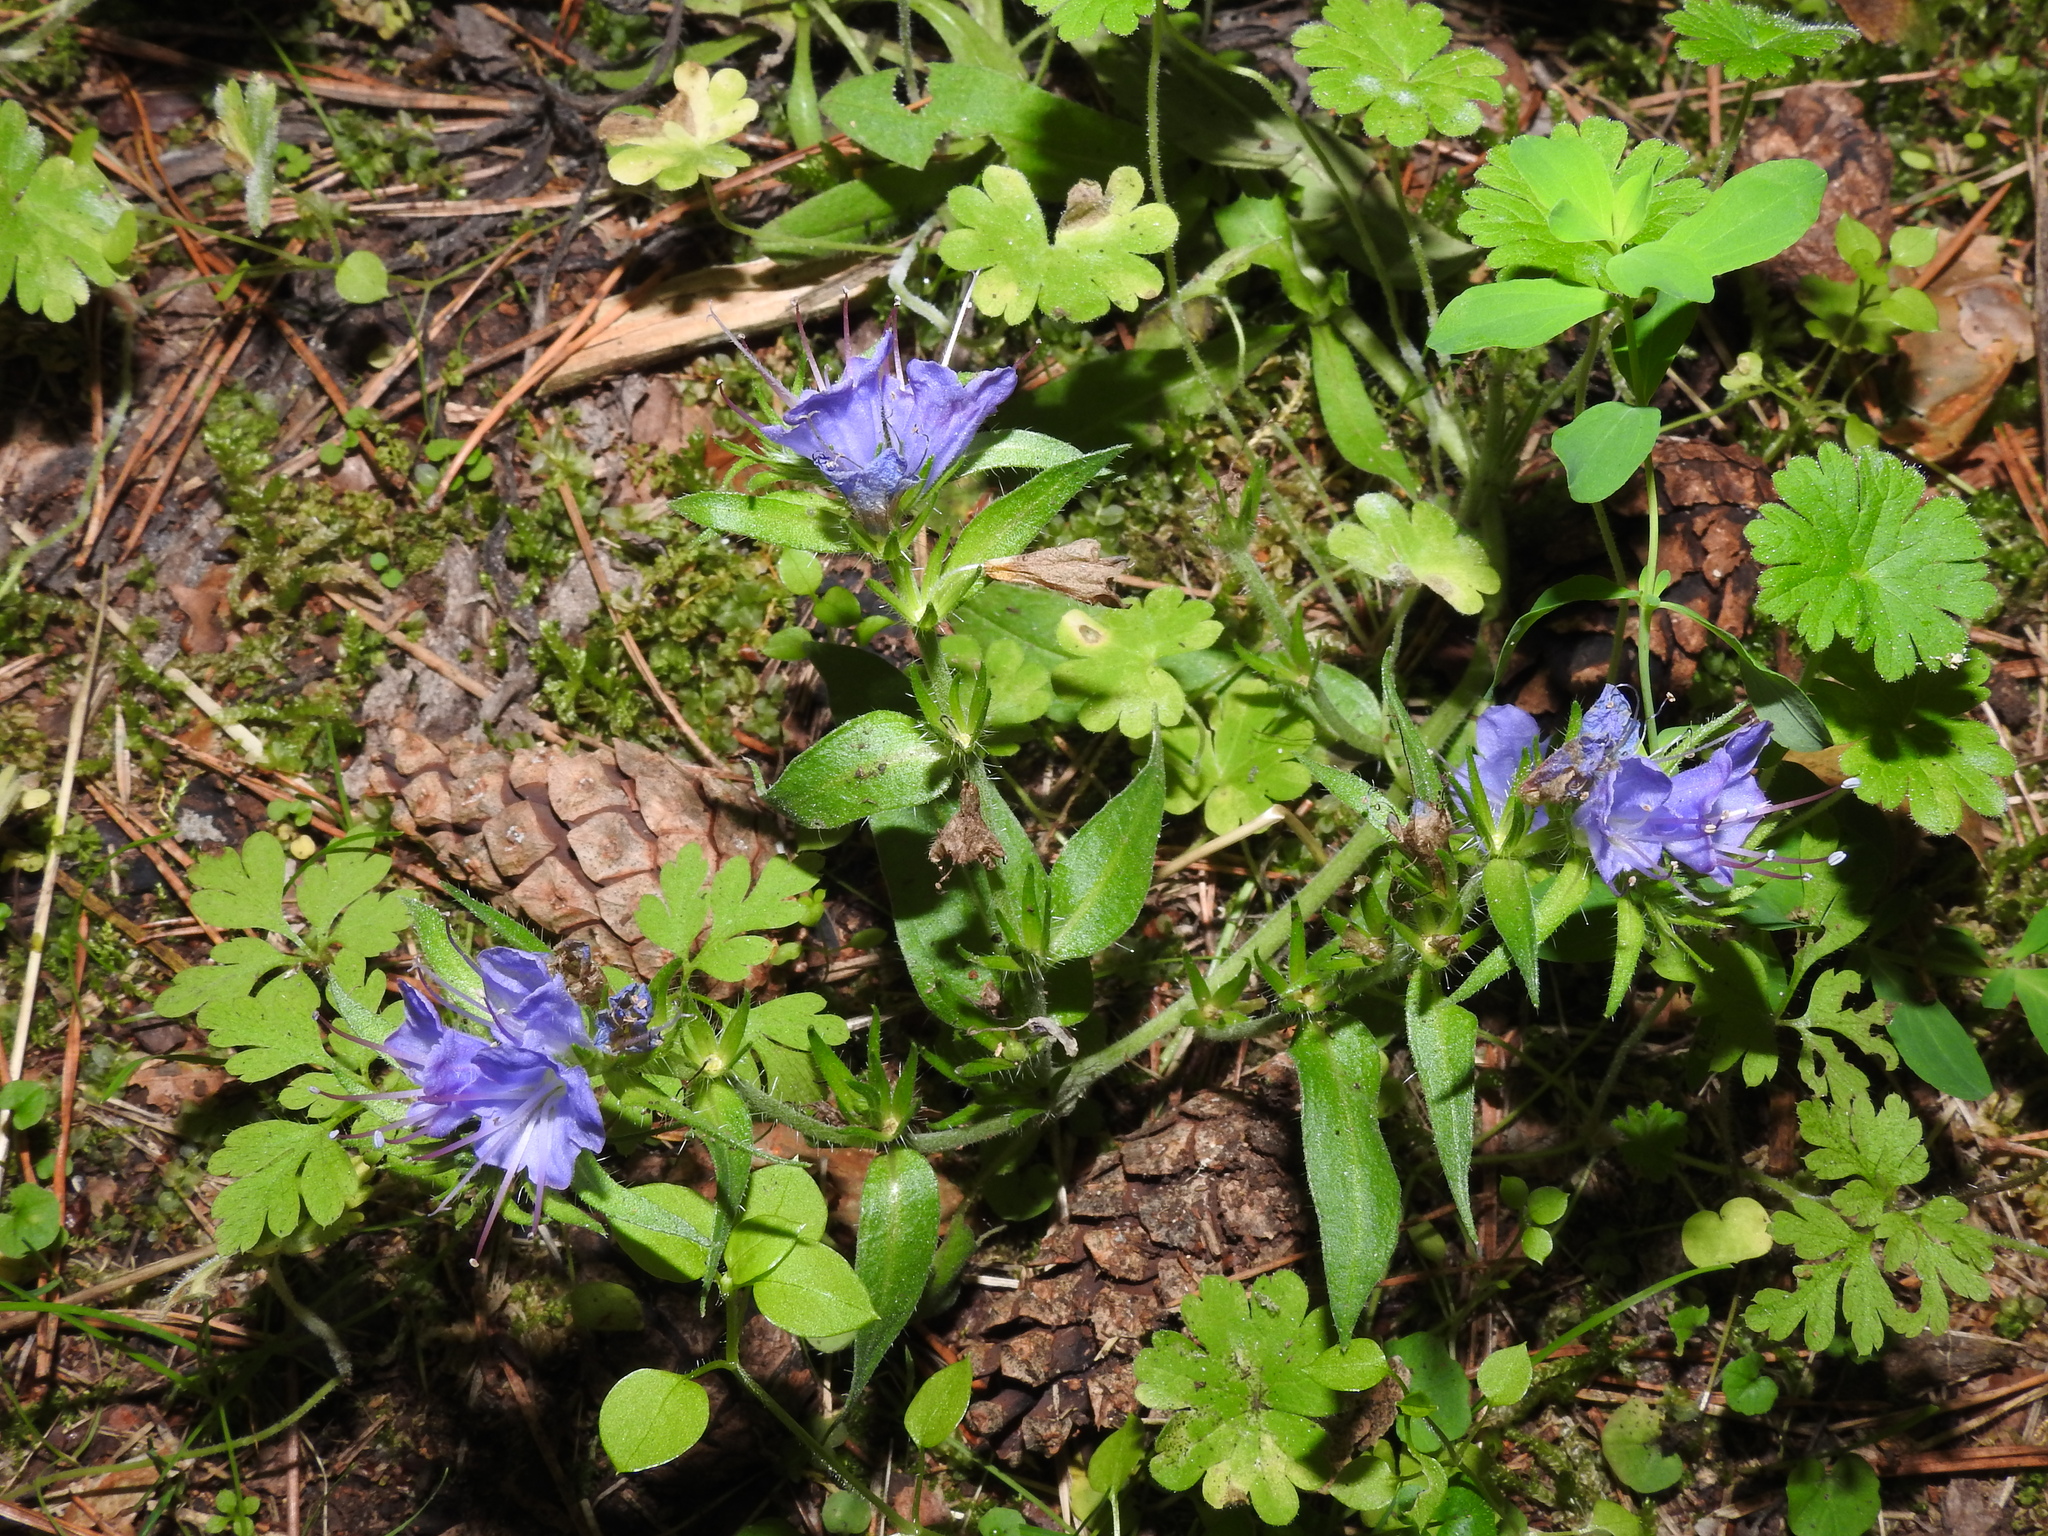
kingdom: Plantae
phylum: Tracheophyta
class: Magnoliopsida
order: Boraginales
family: Boraginaceae
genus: Echium
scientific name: Echium vulgare
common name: Common viper's bugloss
